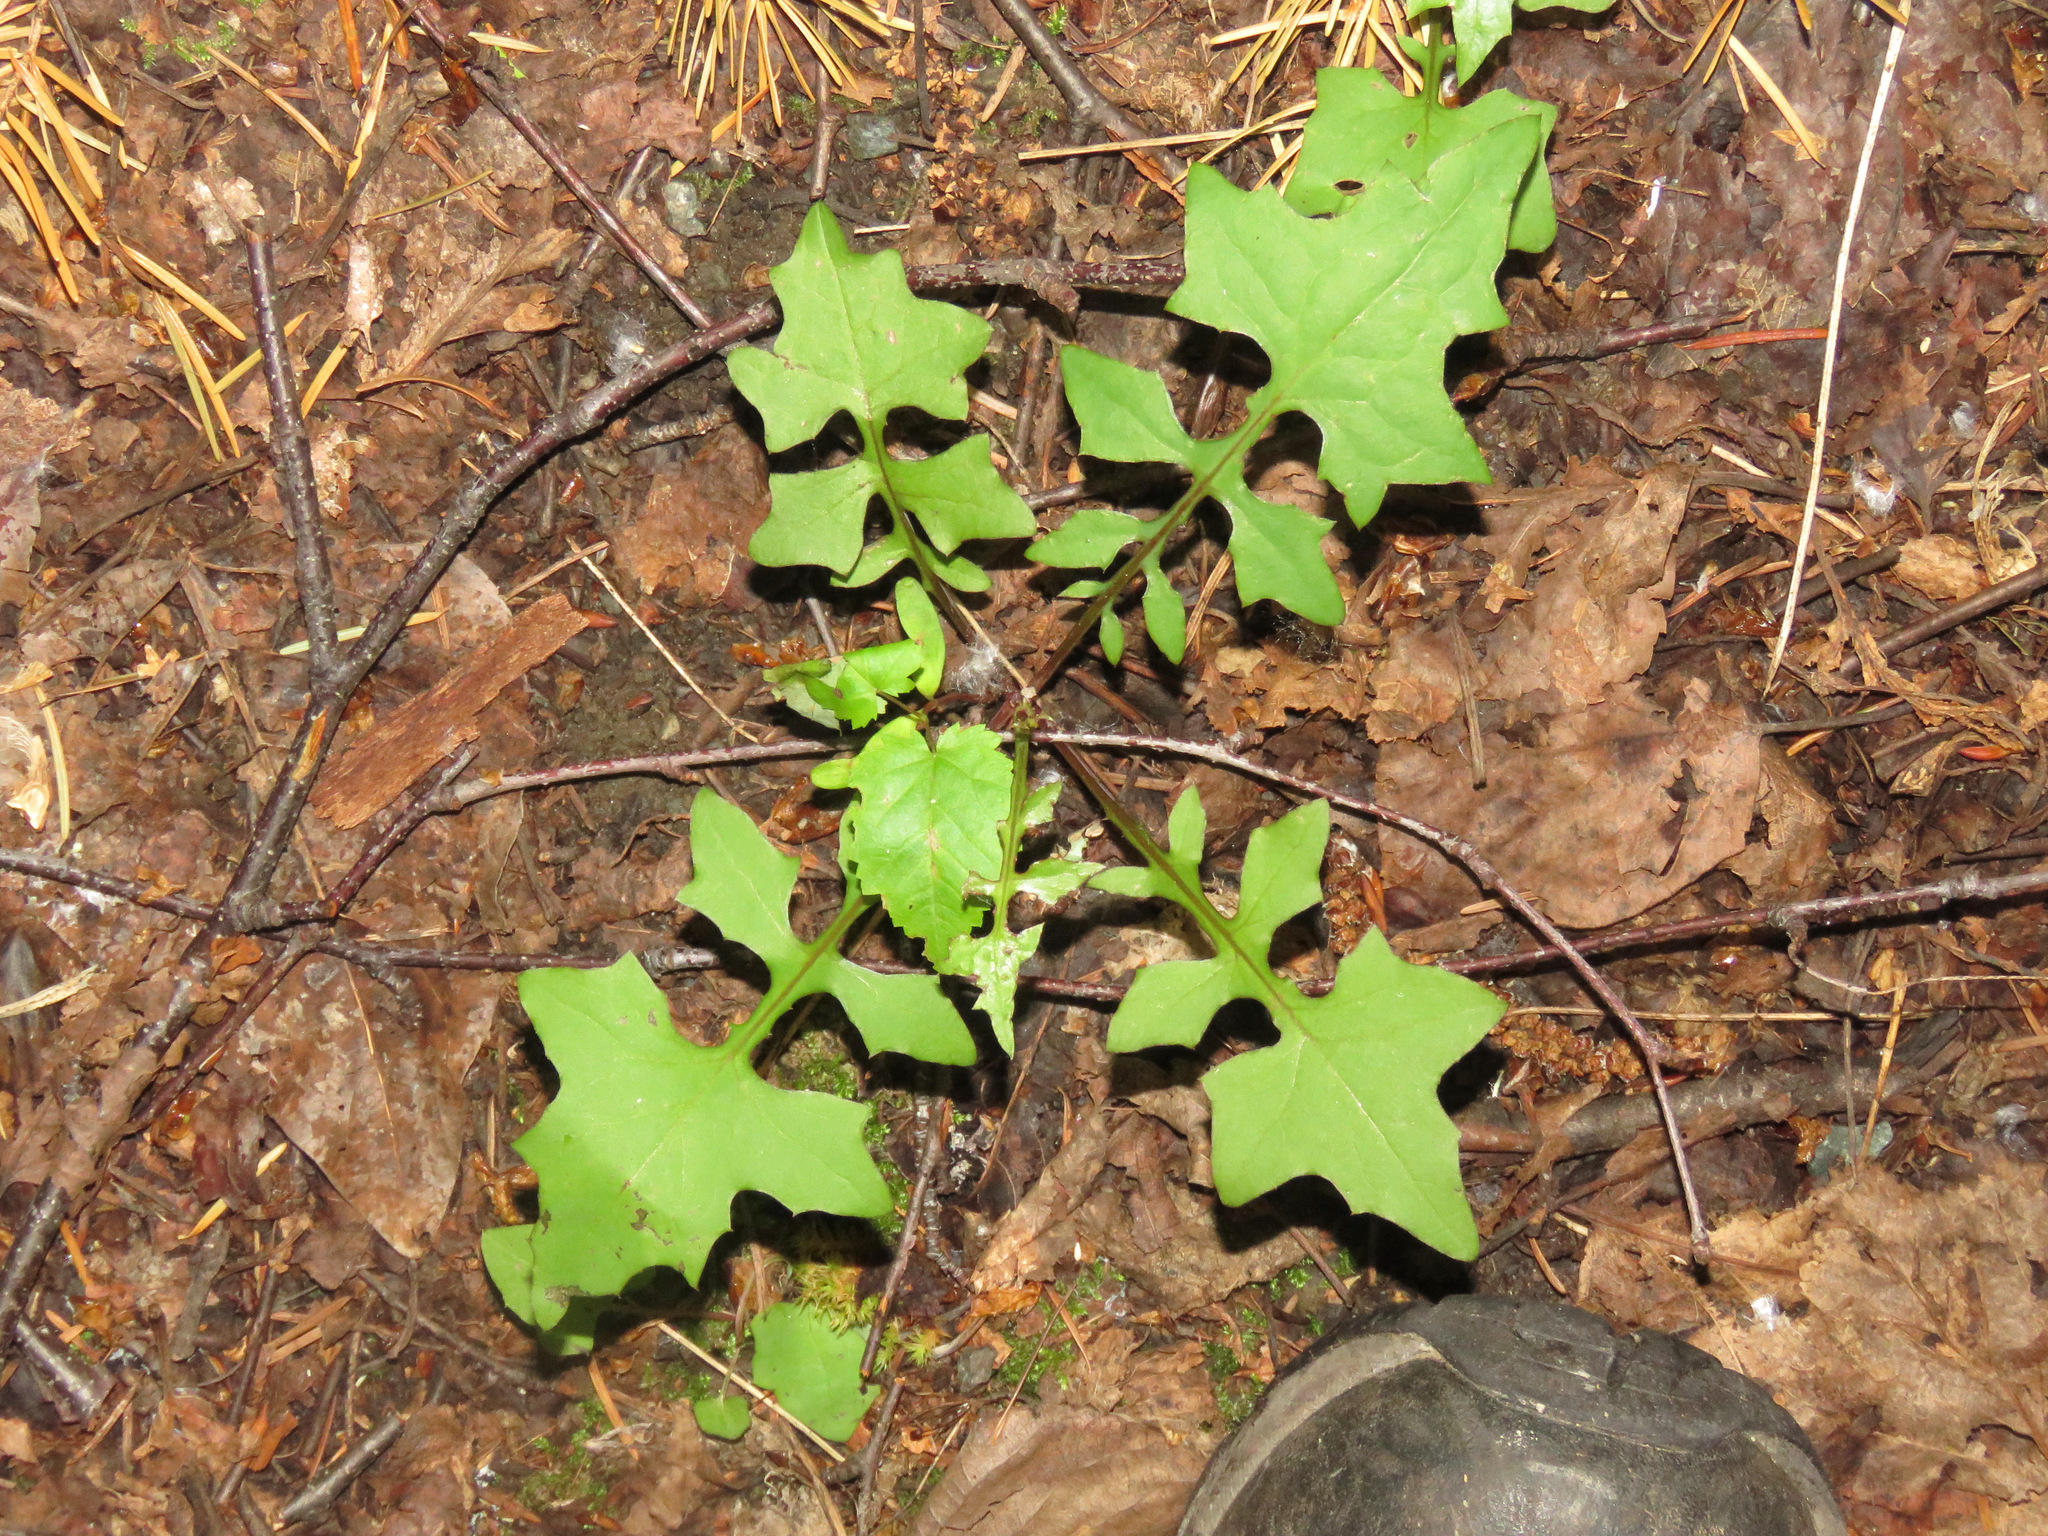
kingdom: Plantae
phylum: Tracheophyta
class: Magnoliopsida
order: Asterales
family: Asteraceae
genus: Mycelis
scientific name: Mycelis muralis
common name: Wall lettuce
